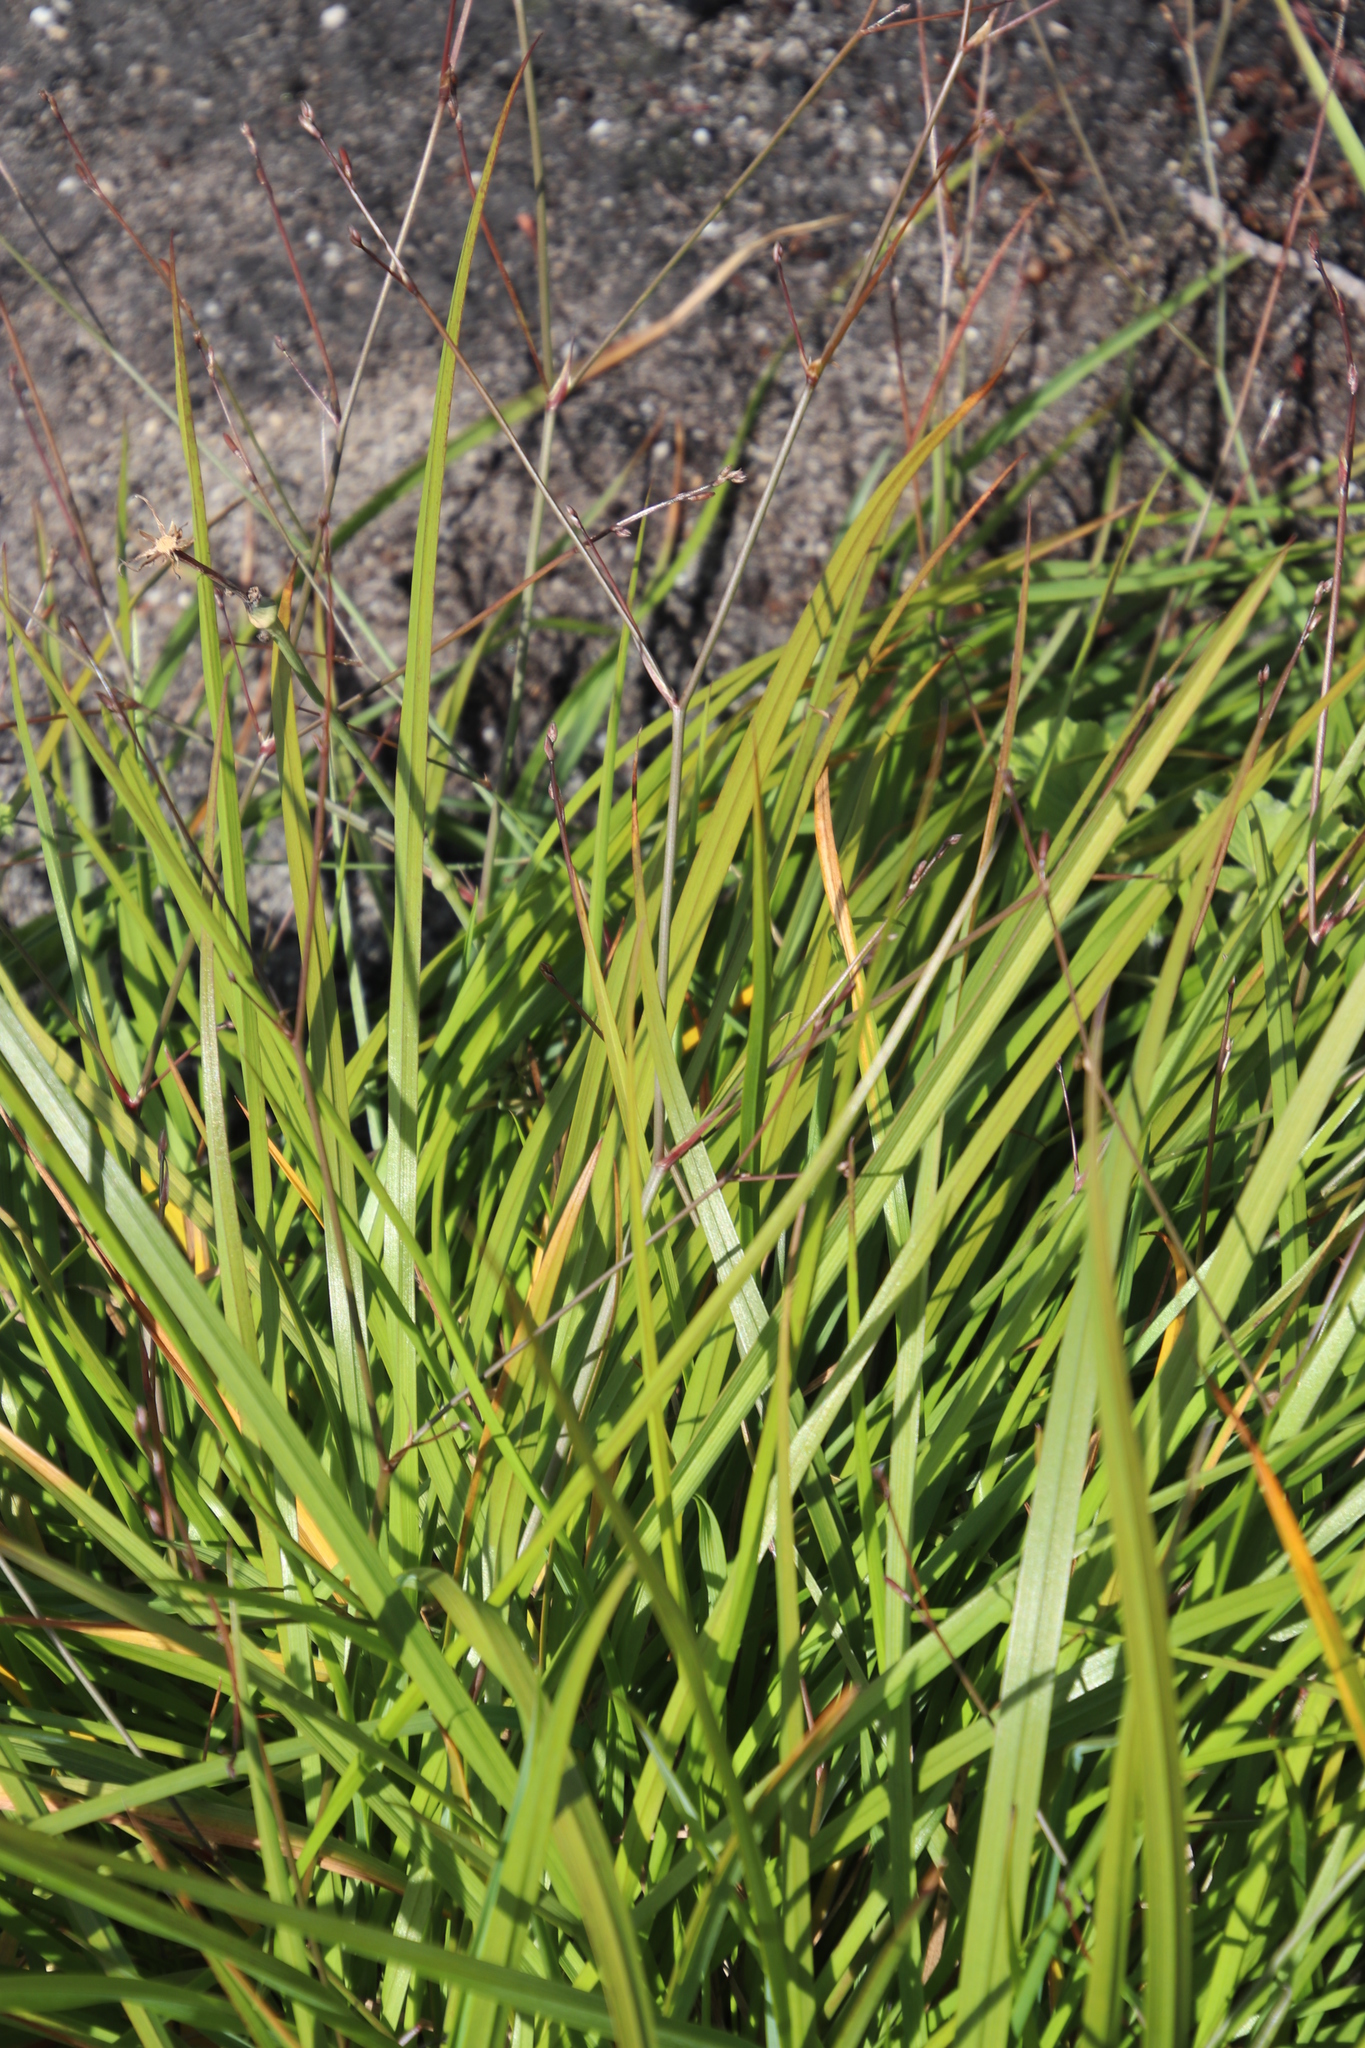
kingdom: Plantae
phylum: Tracheophyta
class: Liliopsida
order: Asparagales
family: Asphodelaceae
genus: Caesia
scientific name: Caesia contorta
